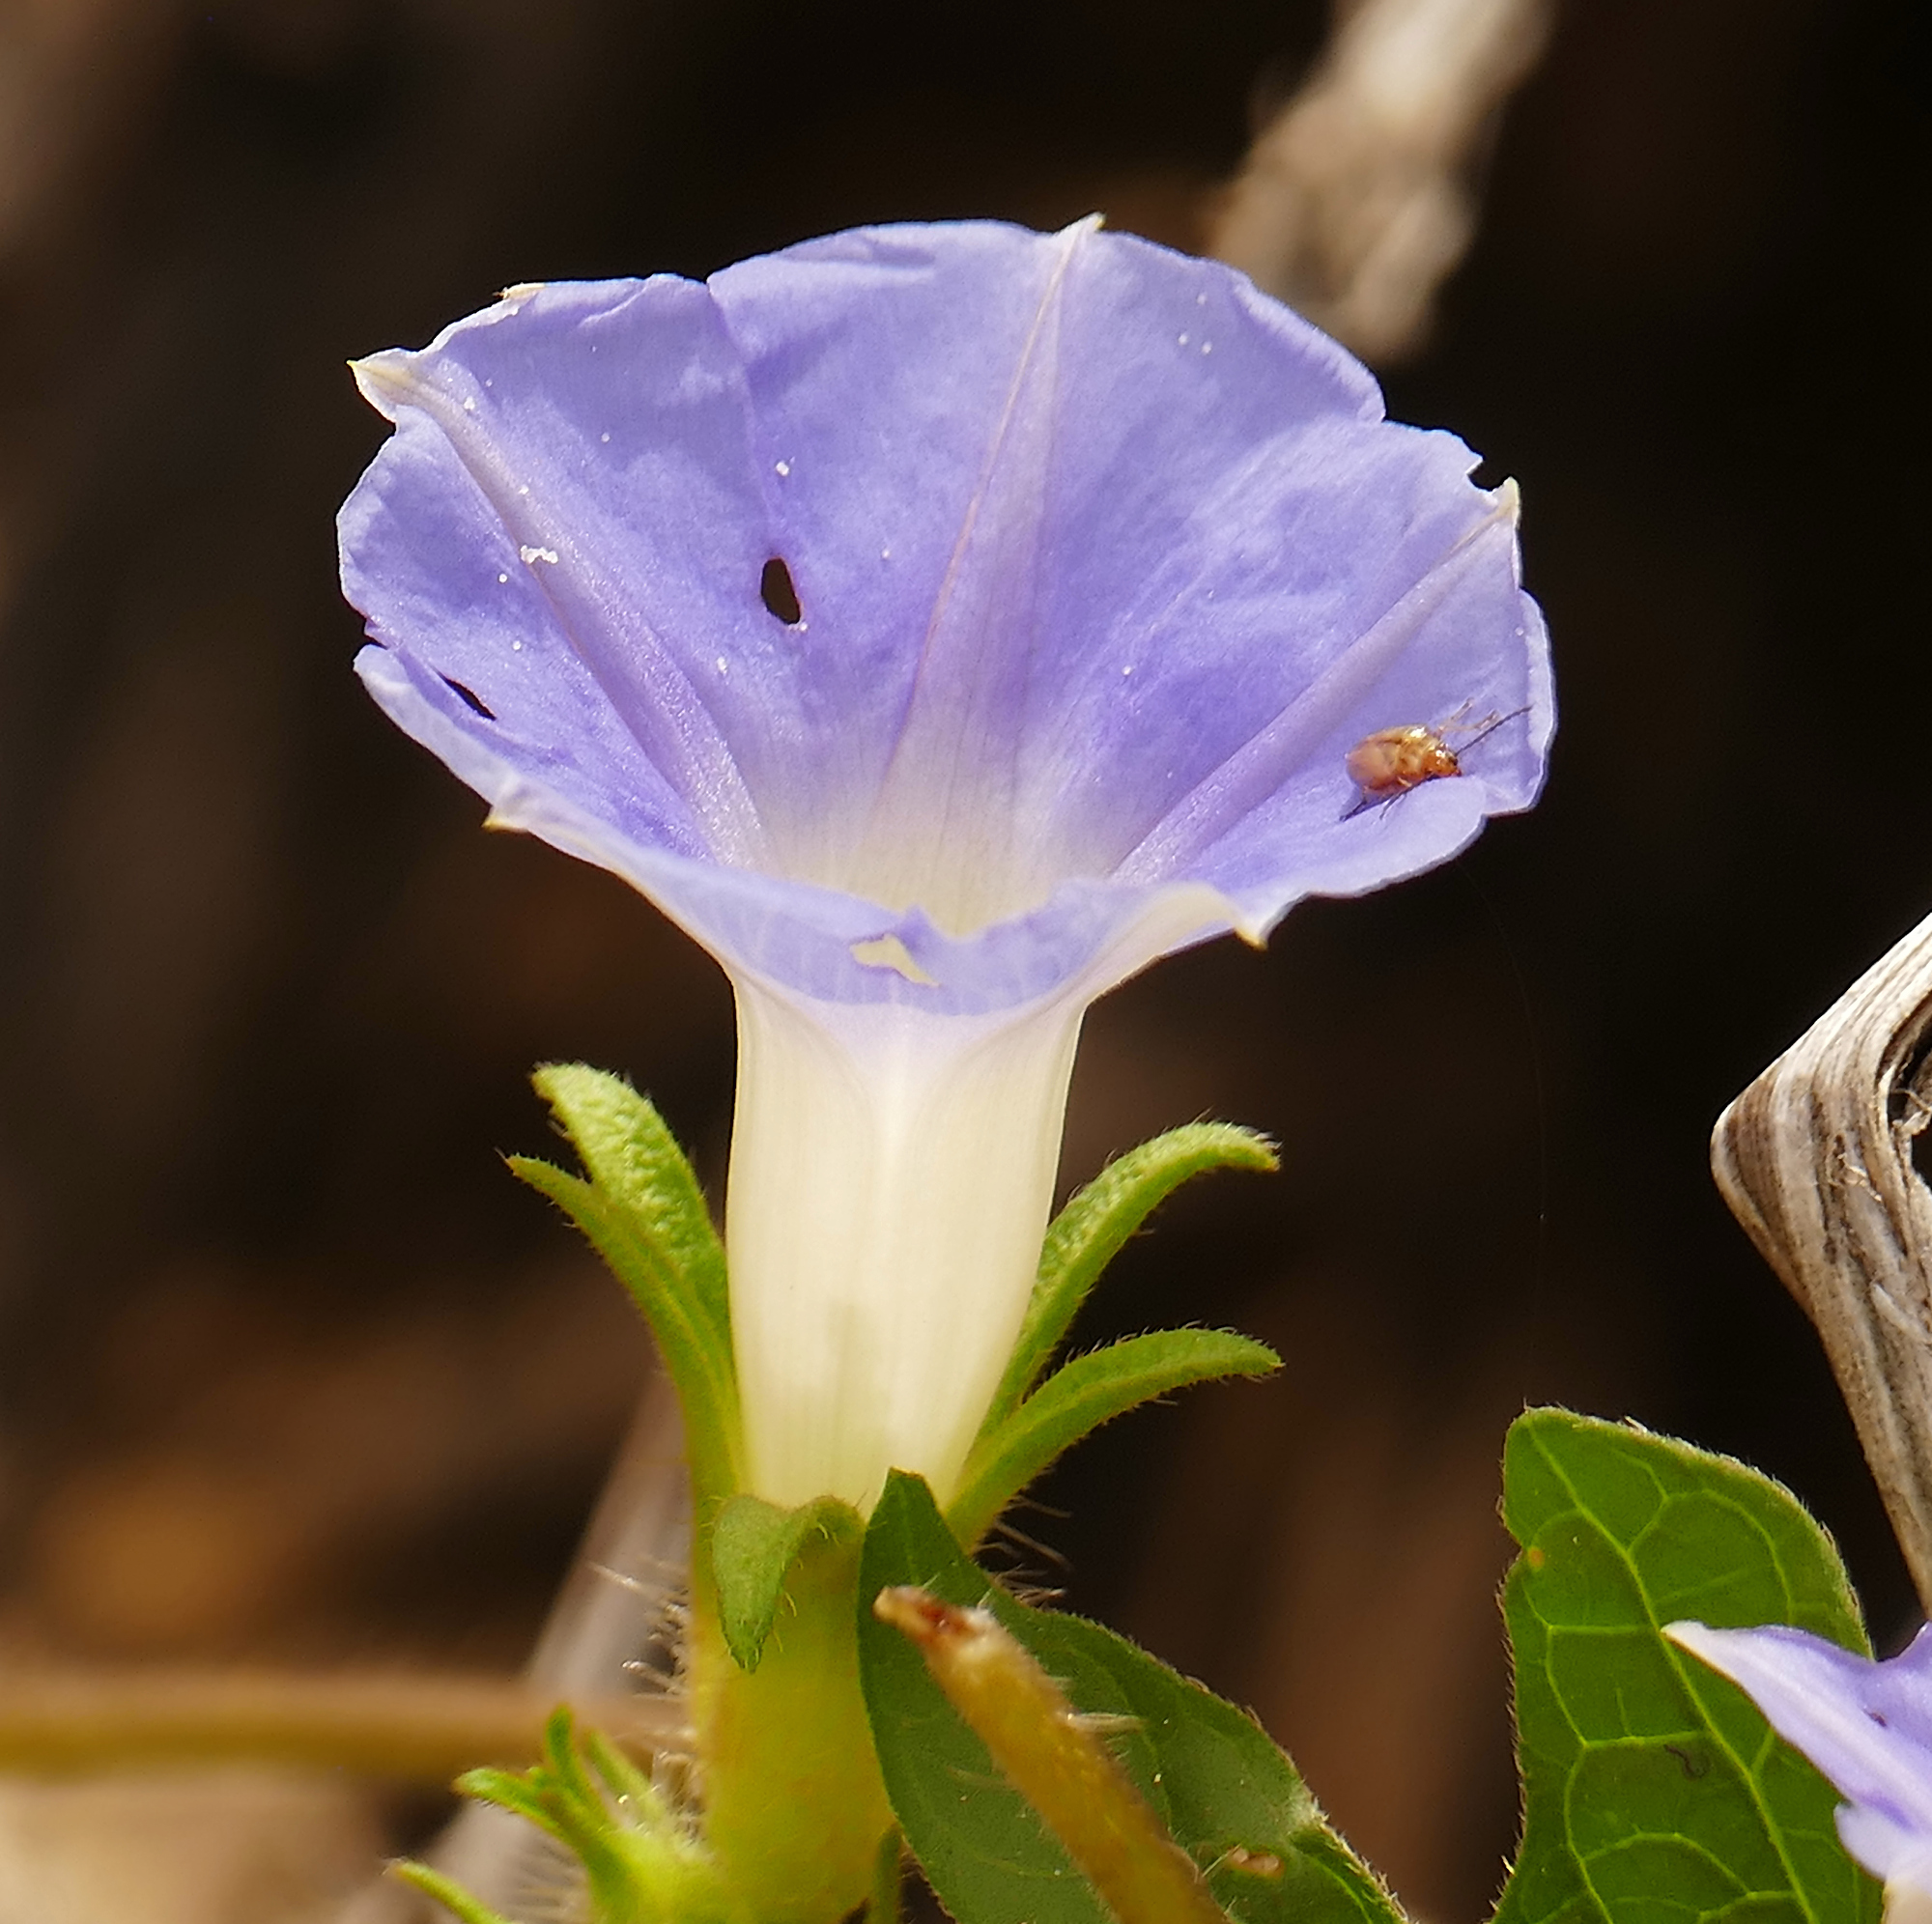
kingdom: Plantae
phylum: Tracheophyta
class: Magnoliopsida
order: Solanales
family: Convolvulaceae
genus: Ipomoea
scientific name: Ipomoea hederacea
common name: Ivy-leaved morning-glory
